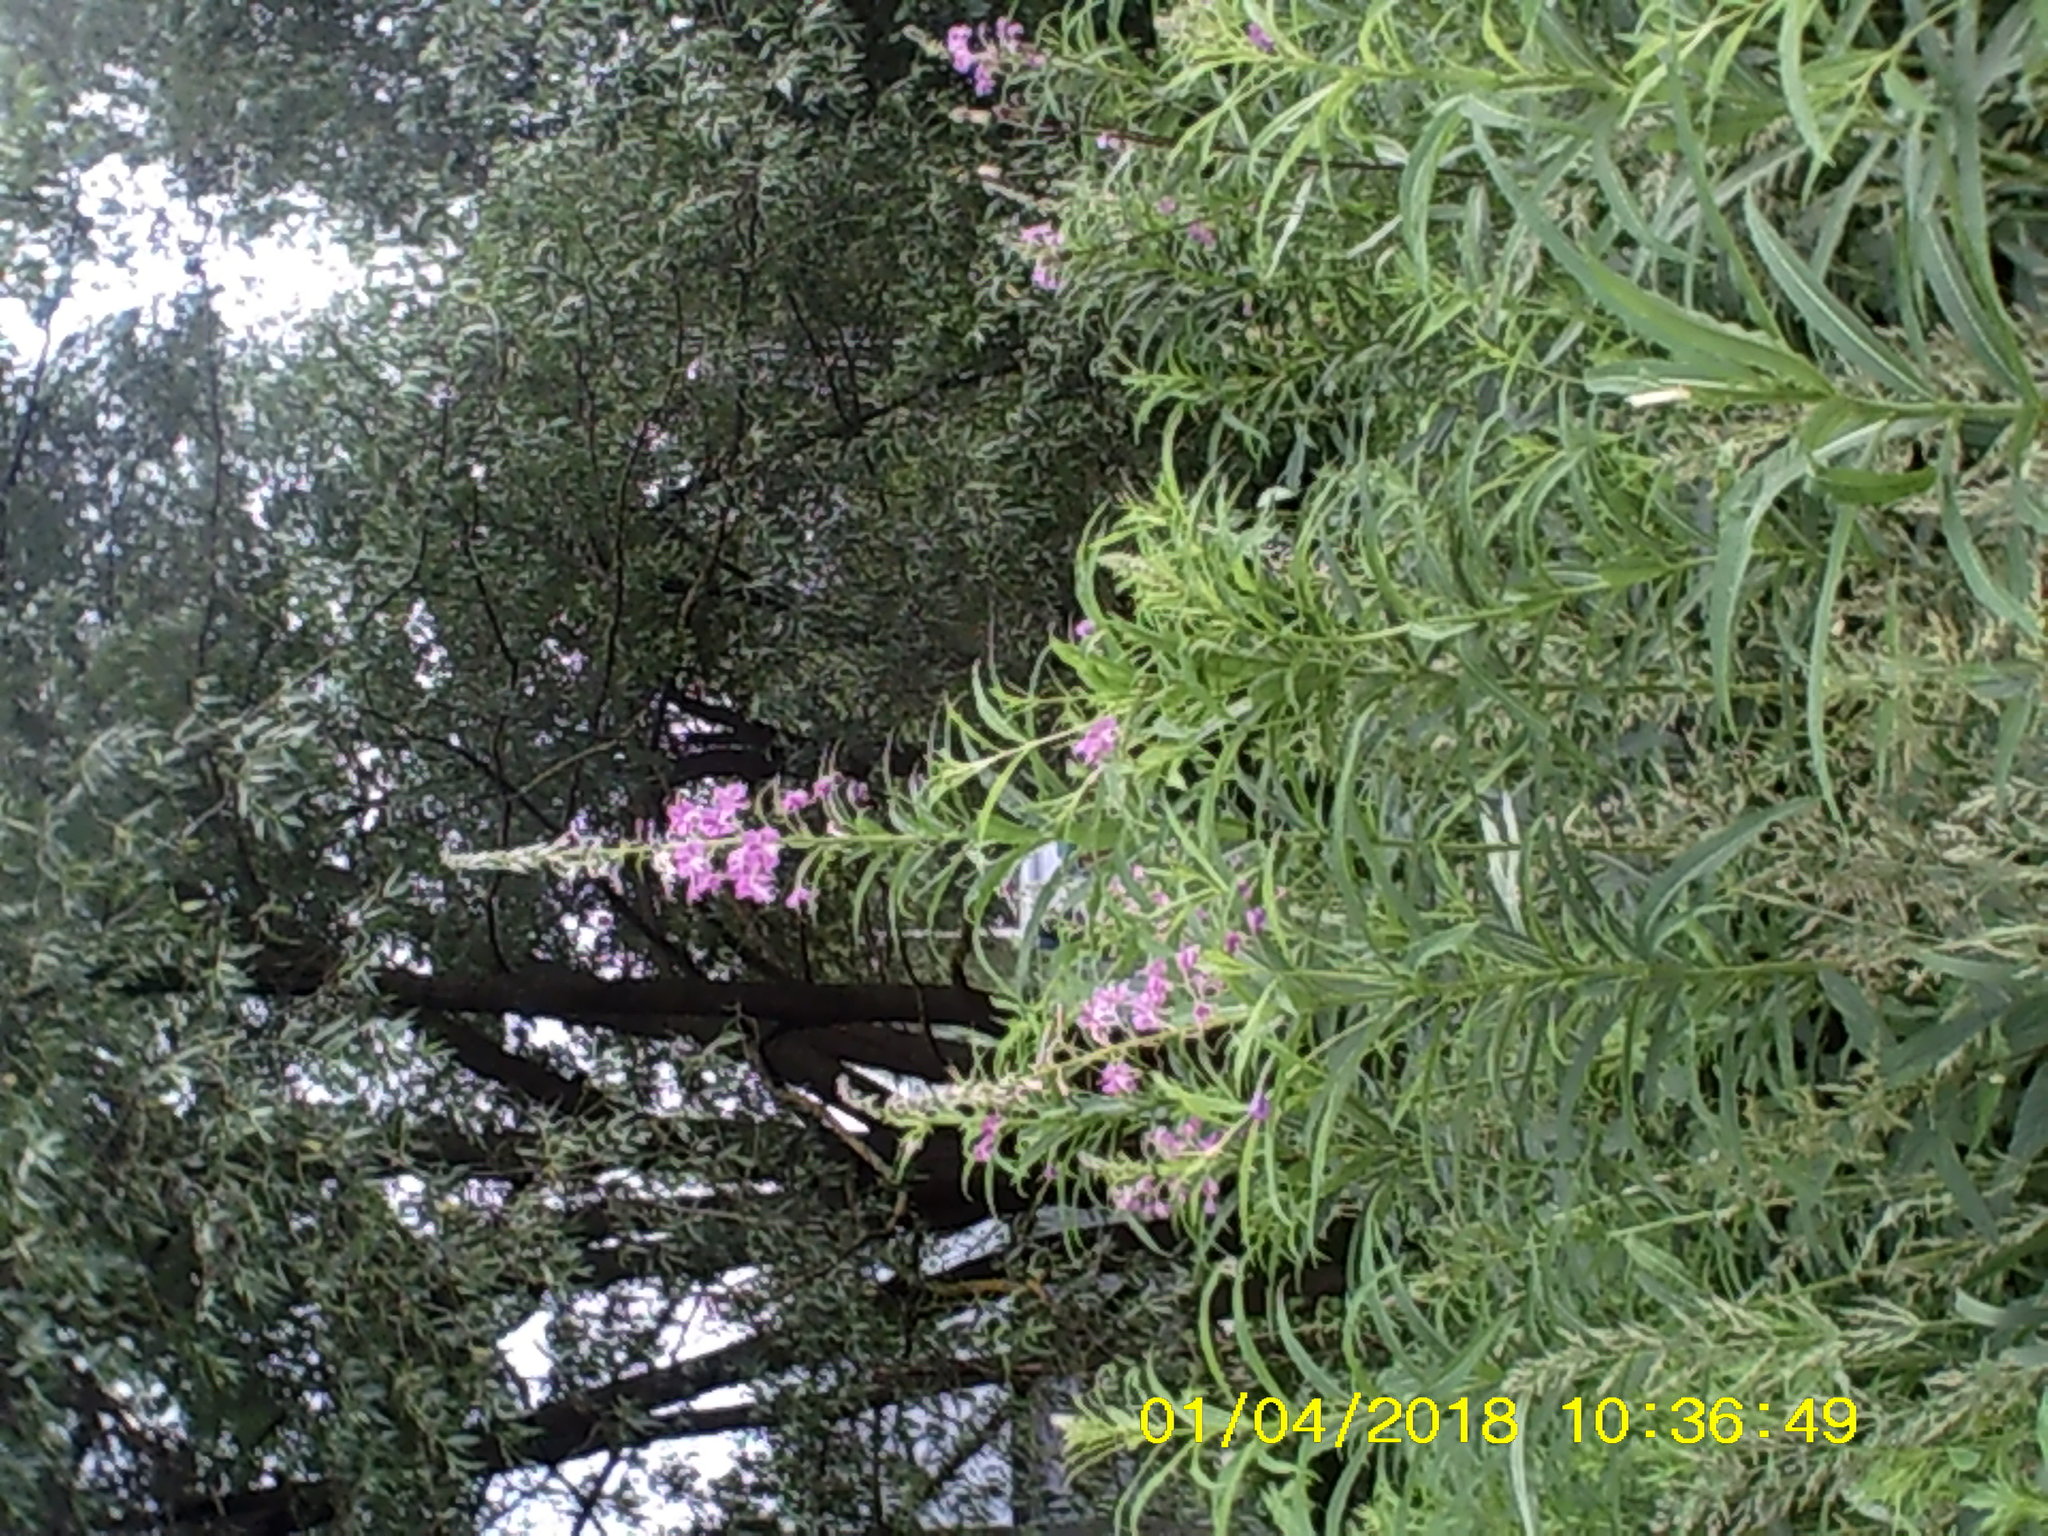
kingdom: Plantae
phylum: Tracheophyta
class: Magnoliopsida
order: Myrtales
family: Onagraceae
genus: Chamaenerion
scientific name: Chamaenerion angustifolium
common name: Fireweed
